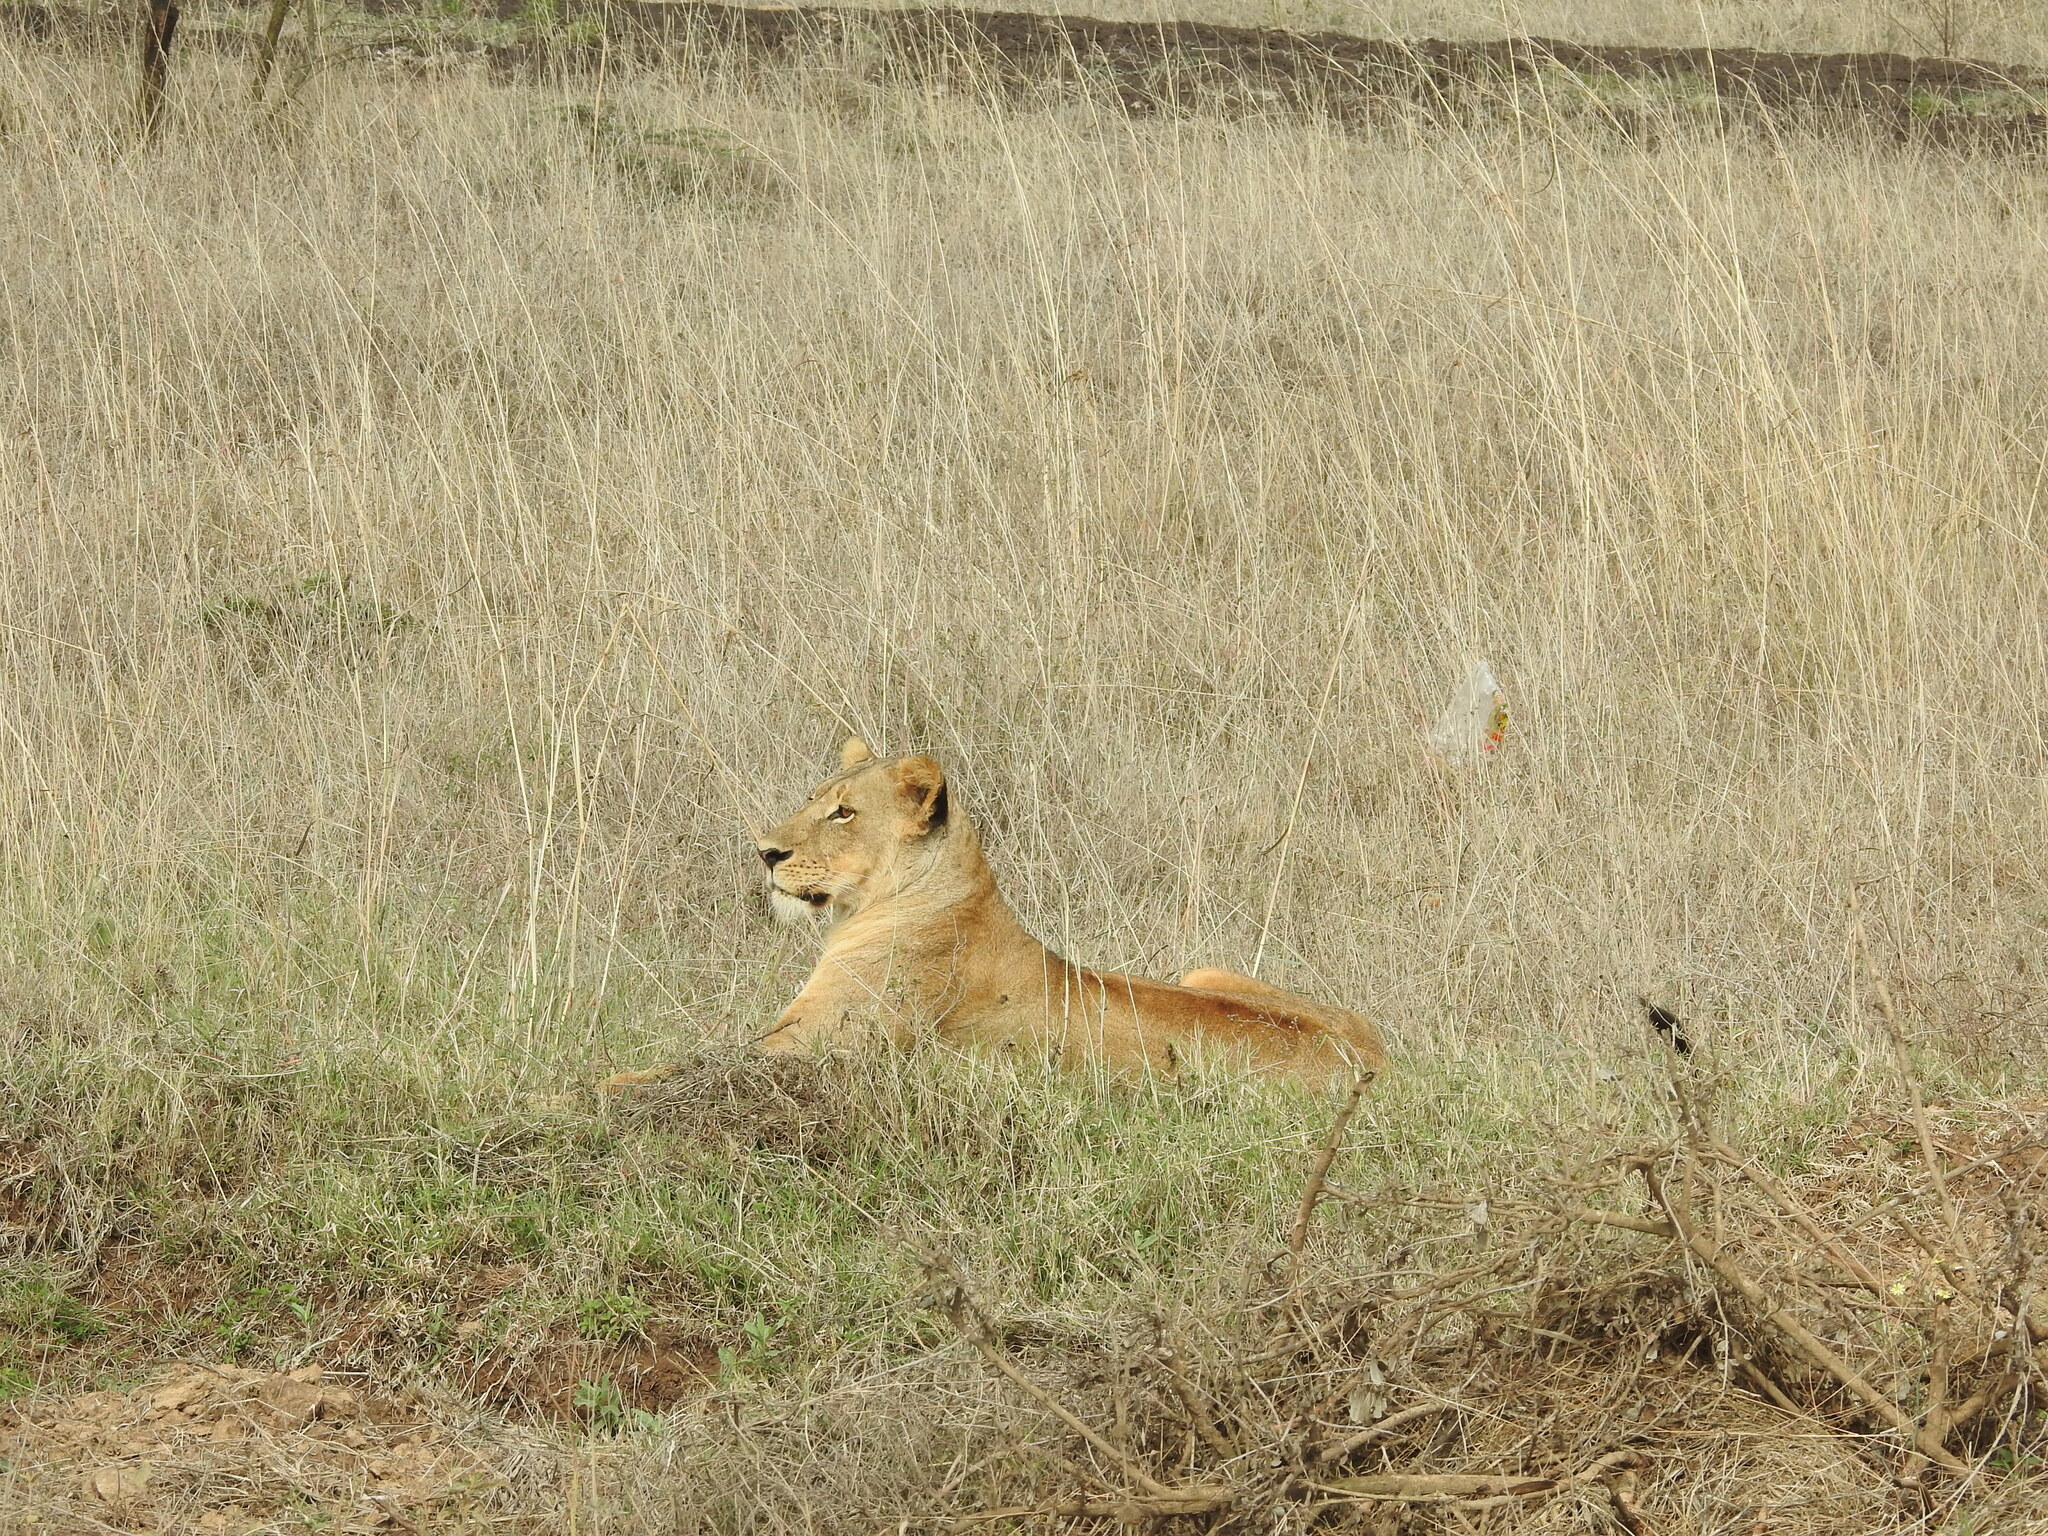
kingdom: Animalia
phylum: Chordata
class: Mammalia
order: Carnivora
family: Felidae
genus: Panthera
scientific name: Panthera leo
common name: Lion
